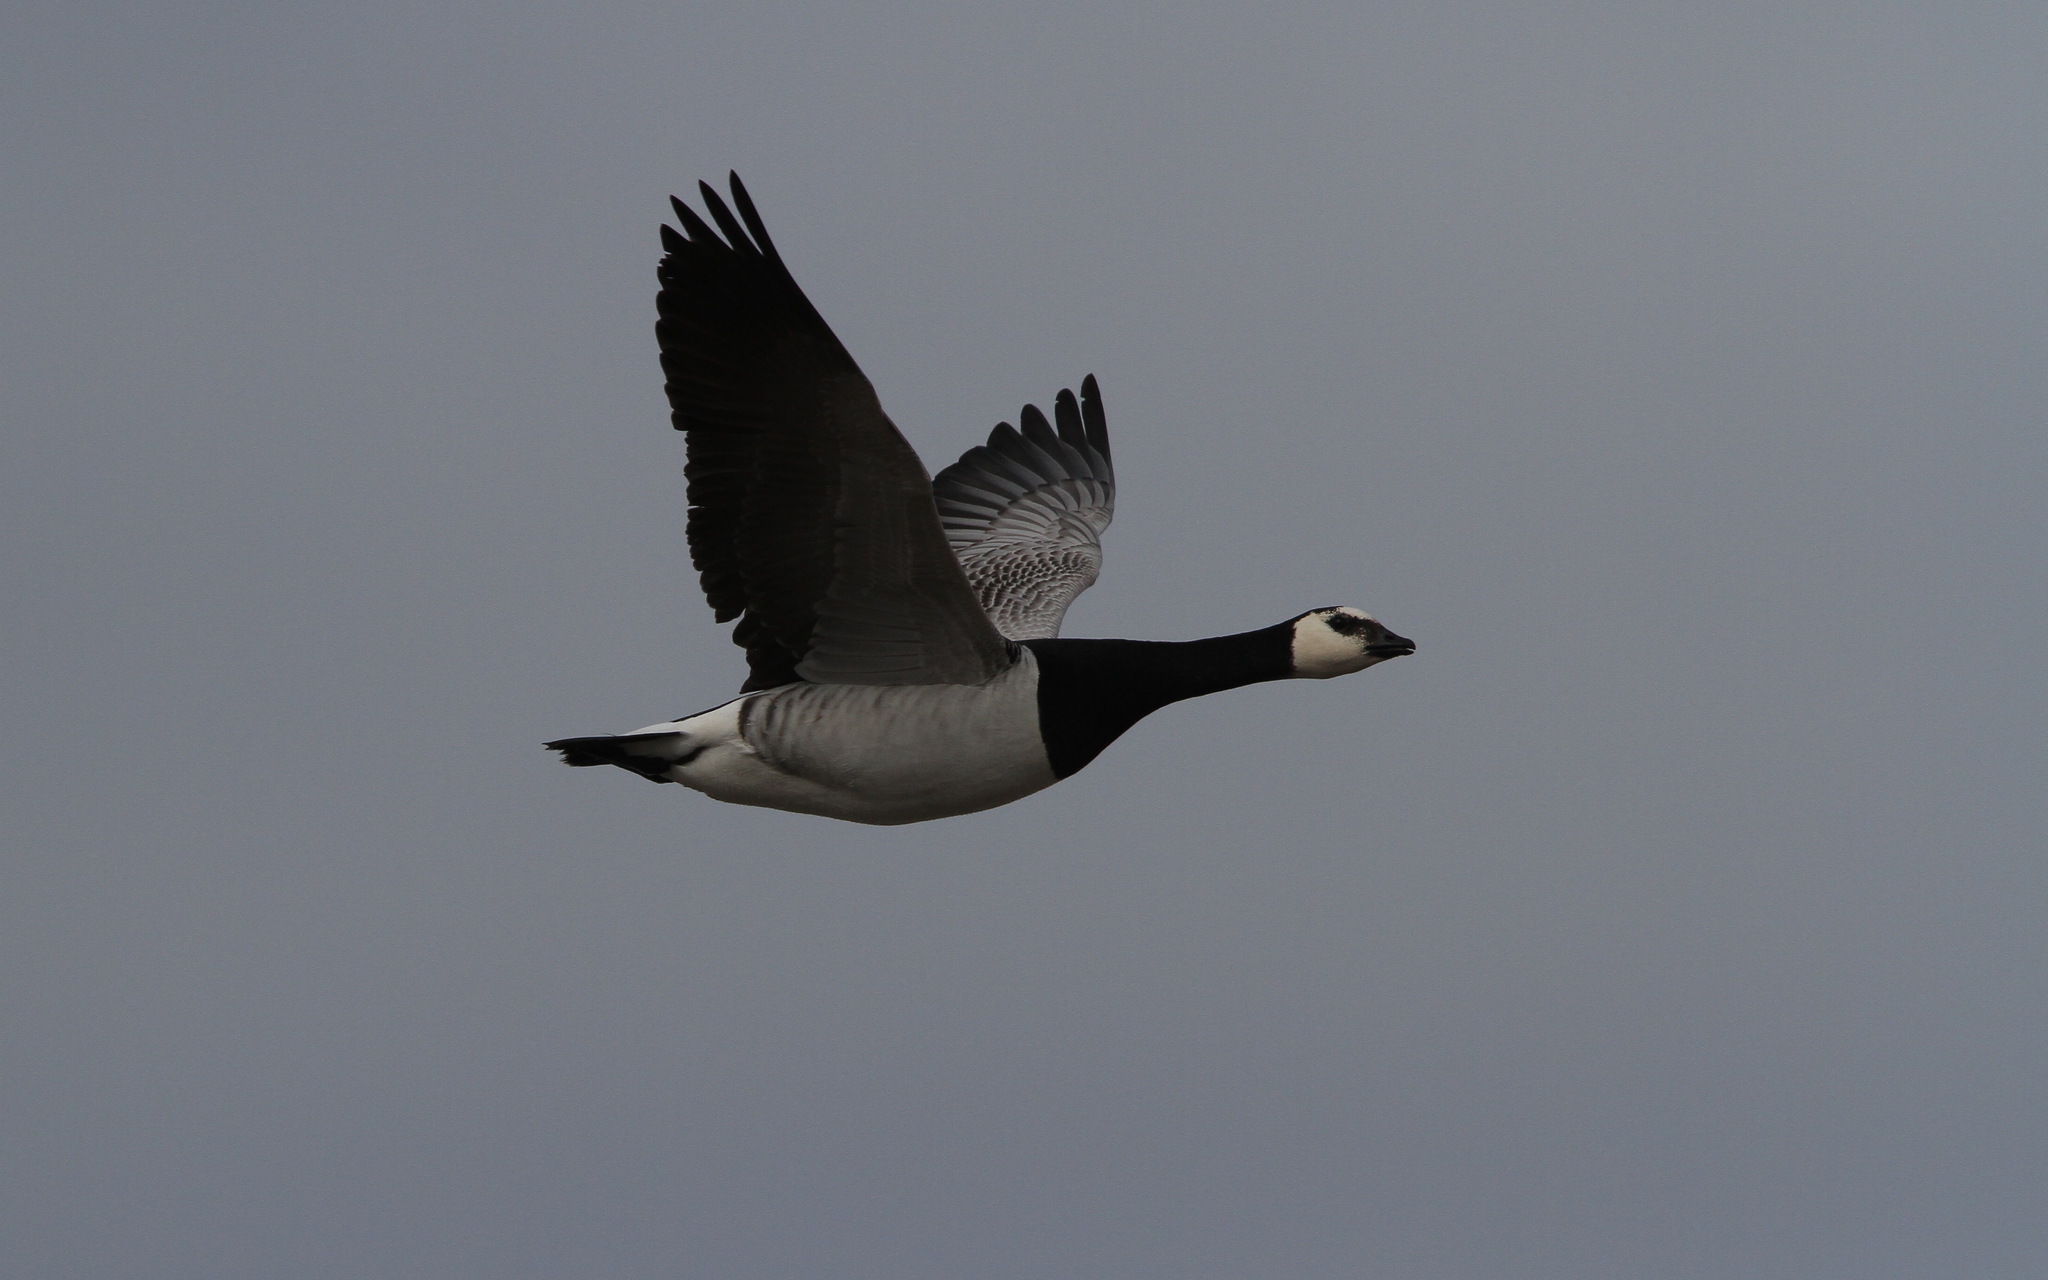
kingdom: Animalia
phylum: Chordata
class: Aves
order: Anseriformes
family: Anatidae
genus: Branta
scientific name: Branta leucopsis
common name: Barnacle goose
